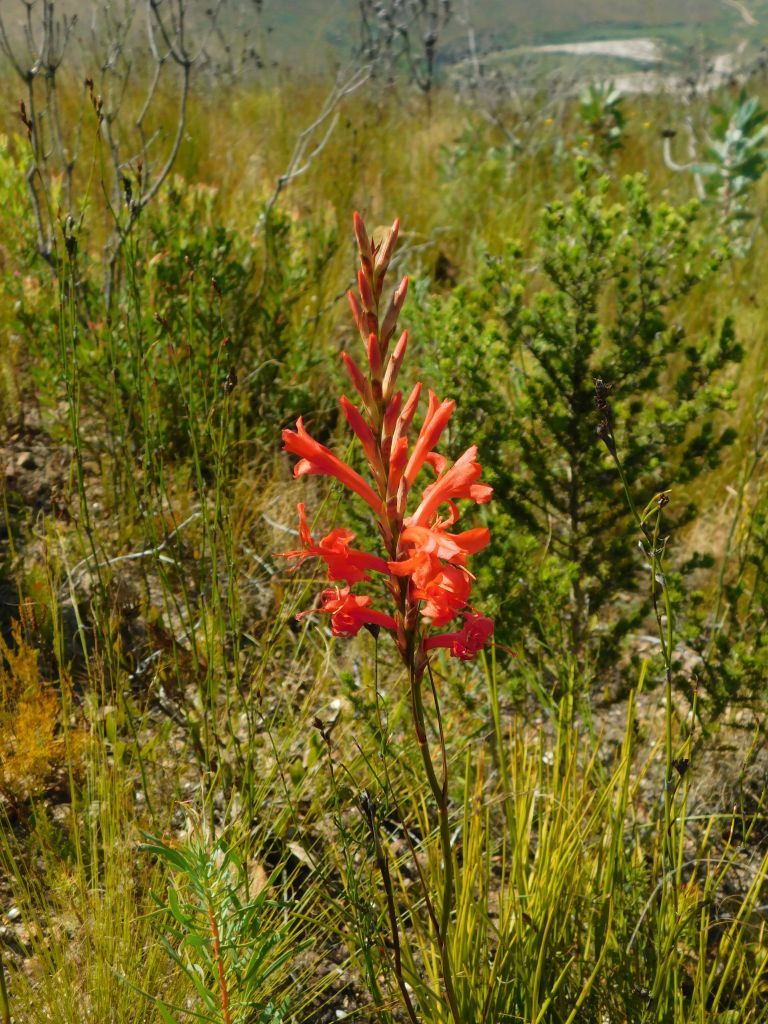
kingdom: Plantae
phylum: Tracheophyta
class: Liliopsida
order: Asparagales
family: Iridaceae
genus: Tritoniopsis
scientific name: Tritoniopsis triticea
